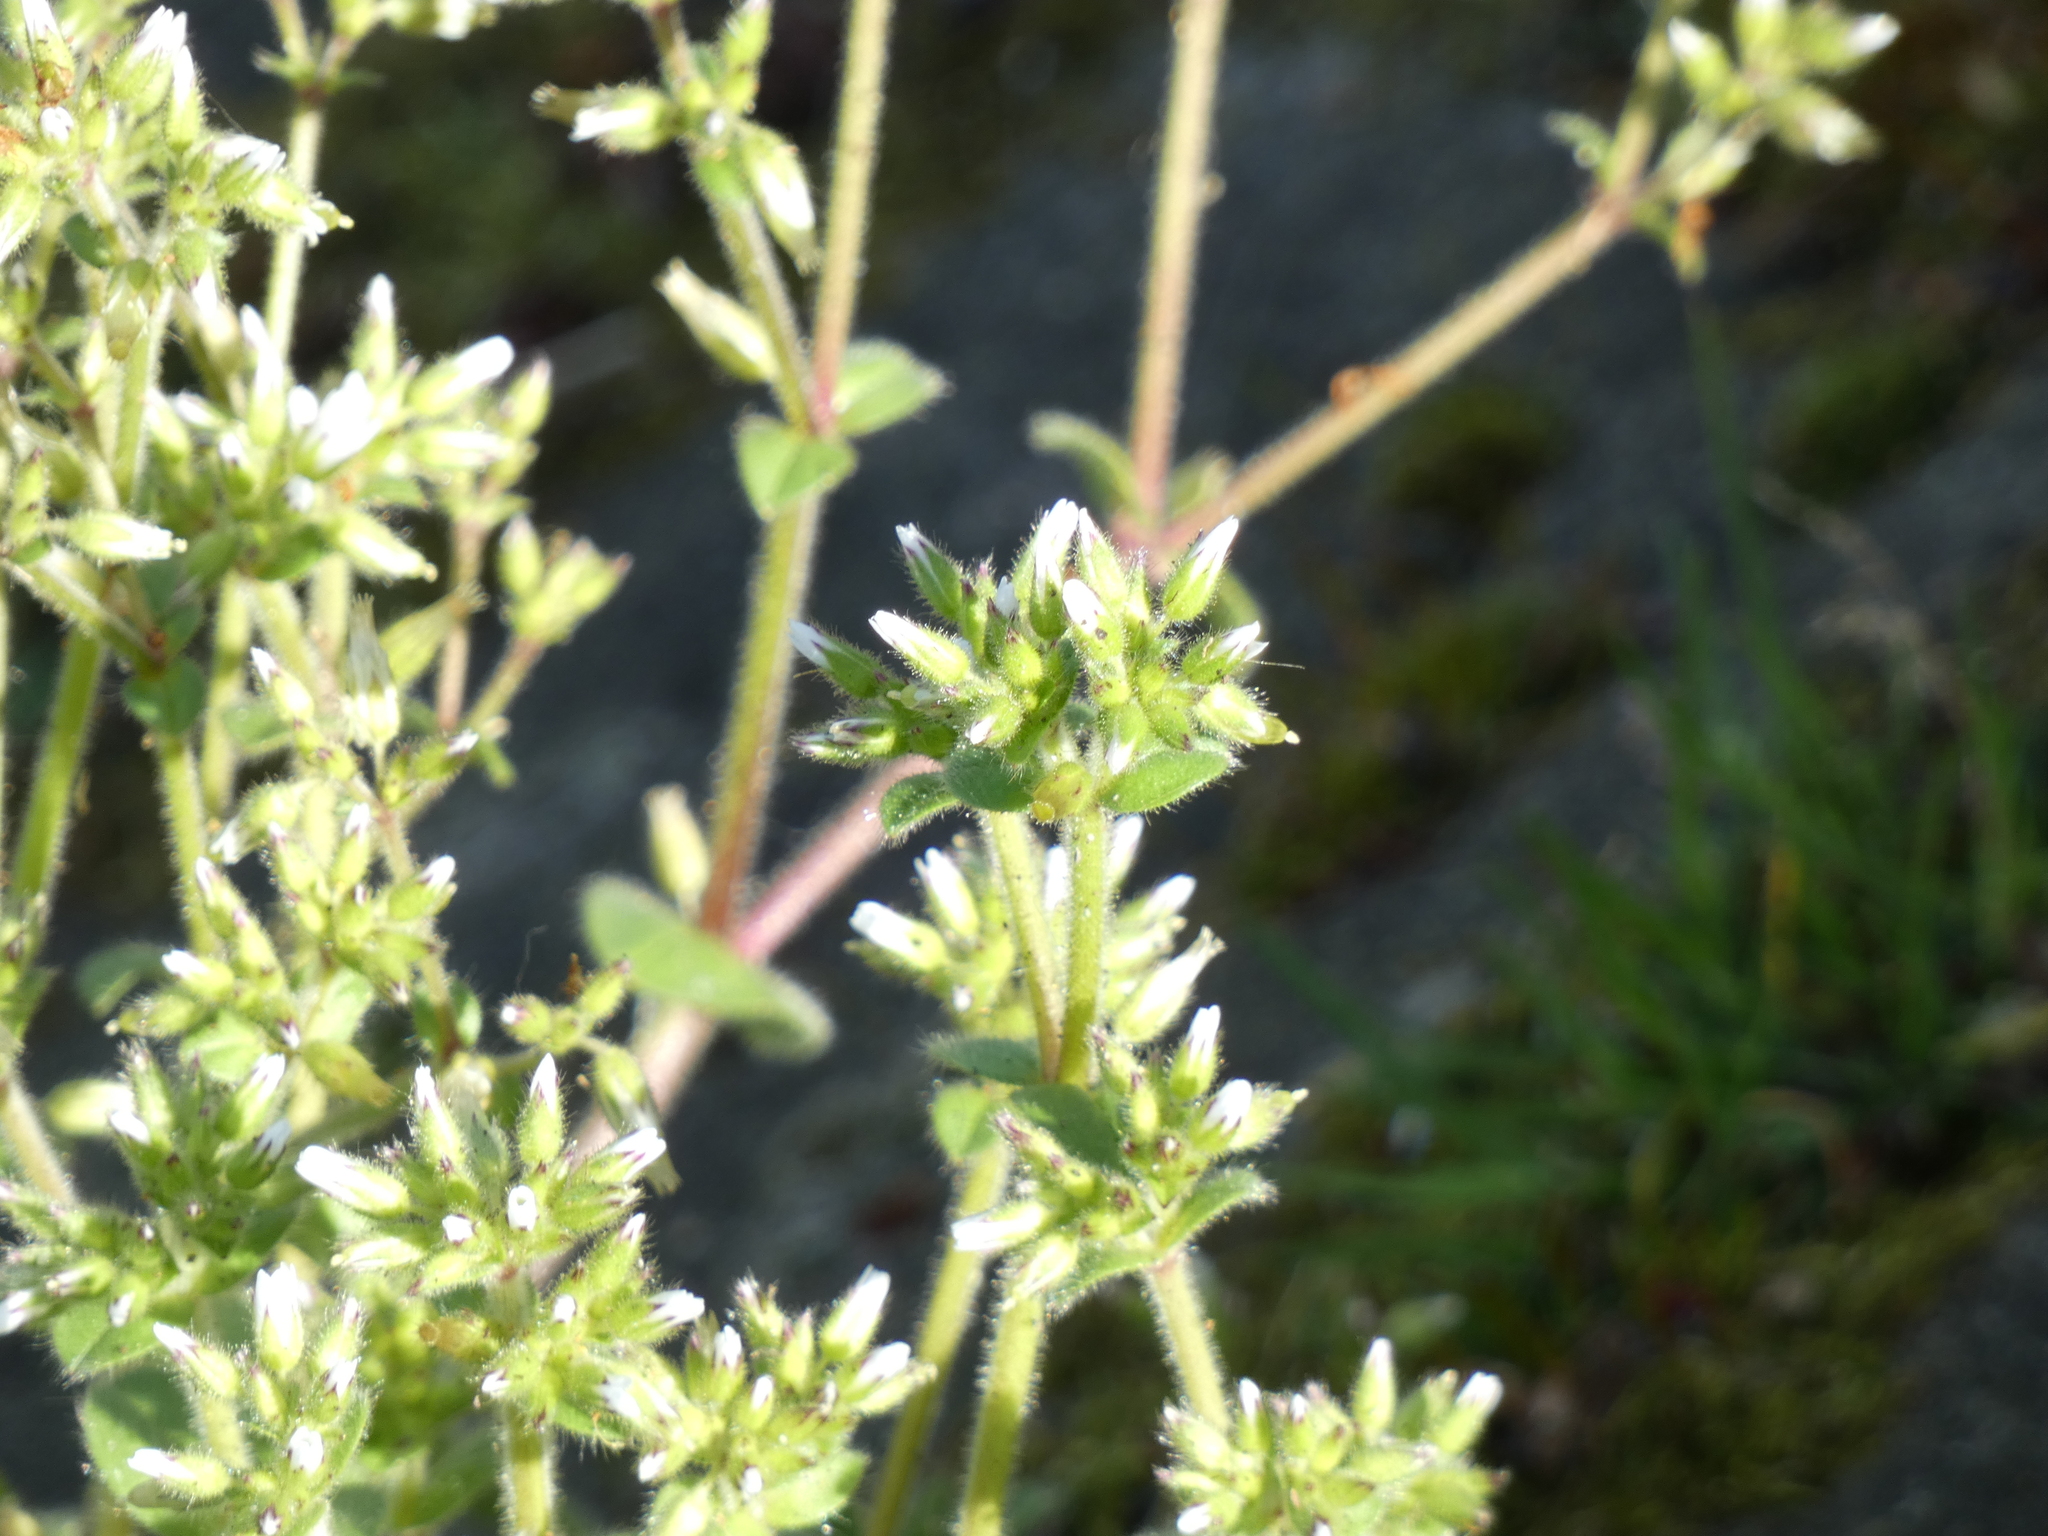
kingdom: Plantae
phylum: Tracheophyta
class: Magnoliopsida
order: Caryophyllales
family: Caryophyllaceae
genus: Cerastium
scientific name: Cerastium glomeratum
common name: Sticky chickweed
